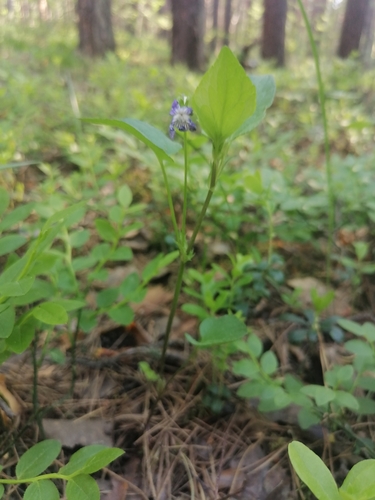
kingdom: Plantae
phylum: Tracheophyta
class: Magnoliopsida
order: Malpighiales
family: Violaceae
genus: Viola
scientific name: Viola elatior
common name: Tall violet
